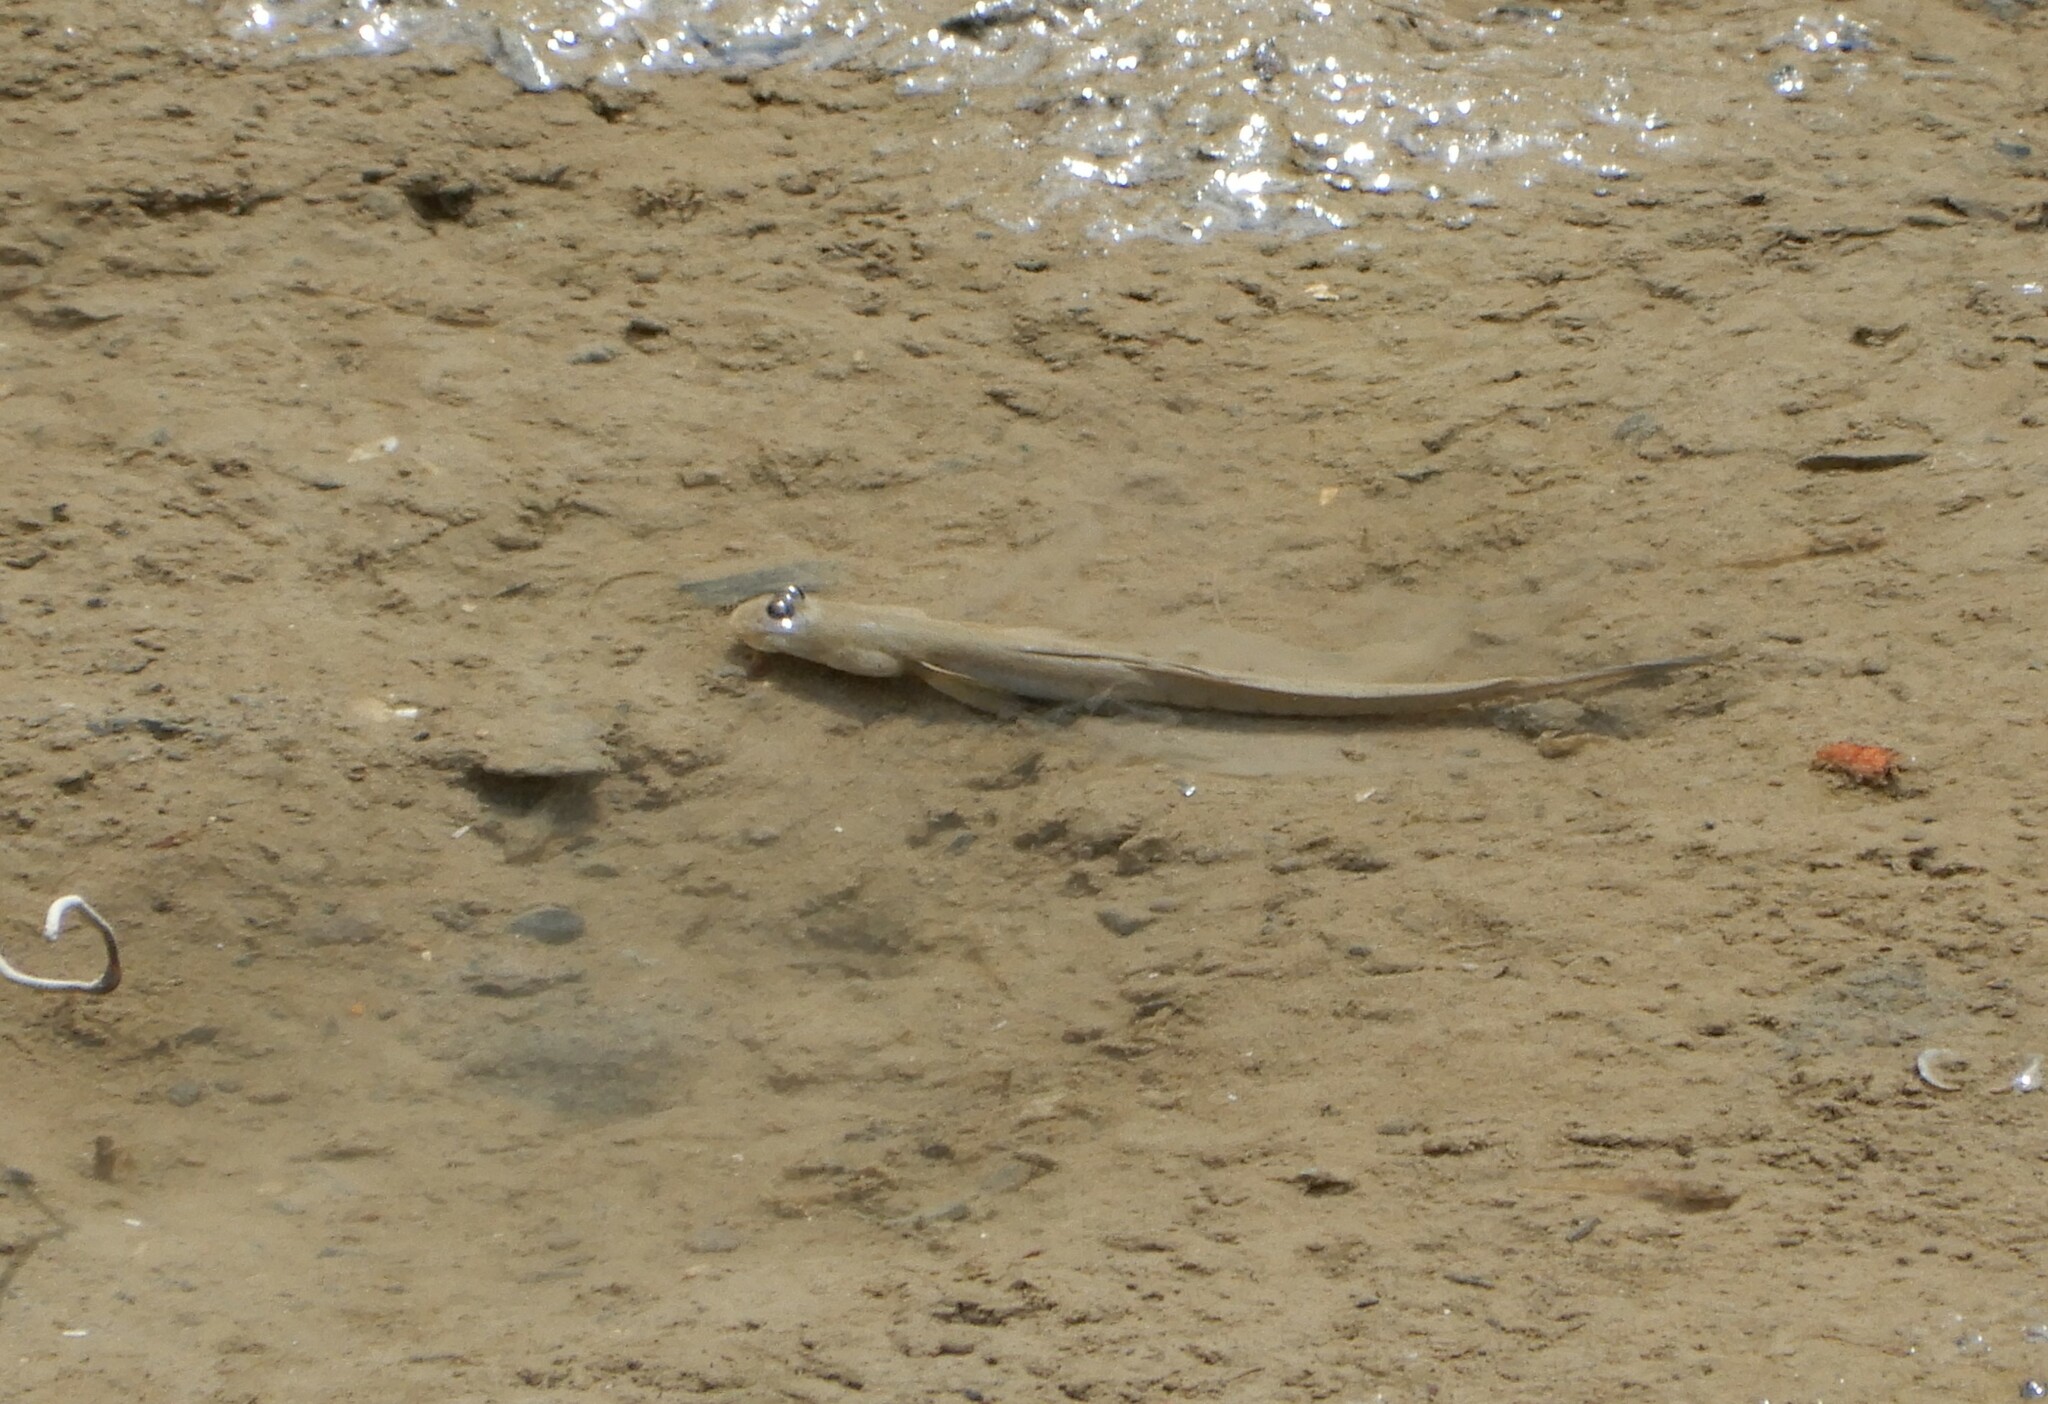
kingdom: Animalia
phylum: Chordata
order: Perciformes
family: Gobiidae
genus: Scartelaos
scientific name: Scartelaos histophorus
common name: Walking goby
